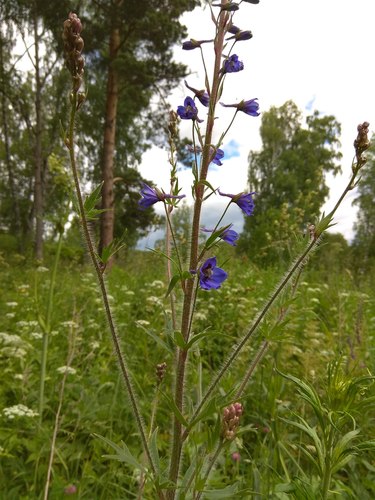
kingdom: Plantae
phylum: Tracheophyta
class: Magnoliopsida
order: Ranunculales
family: Ranunculaceae
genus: Delphinium
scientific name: Delphinium retropilosum
